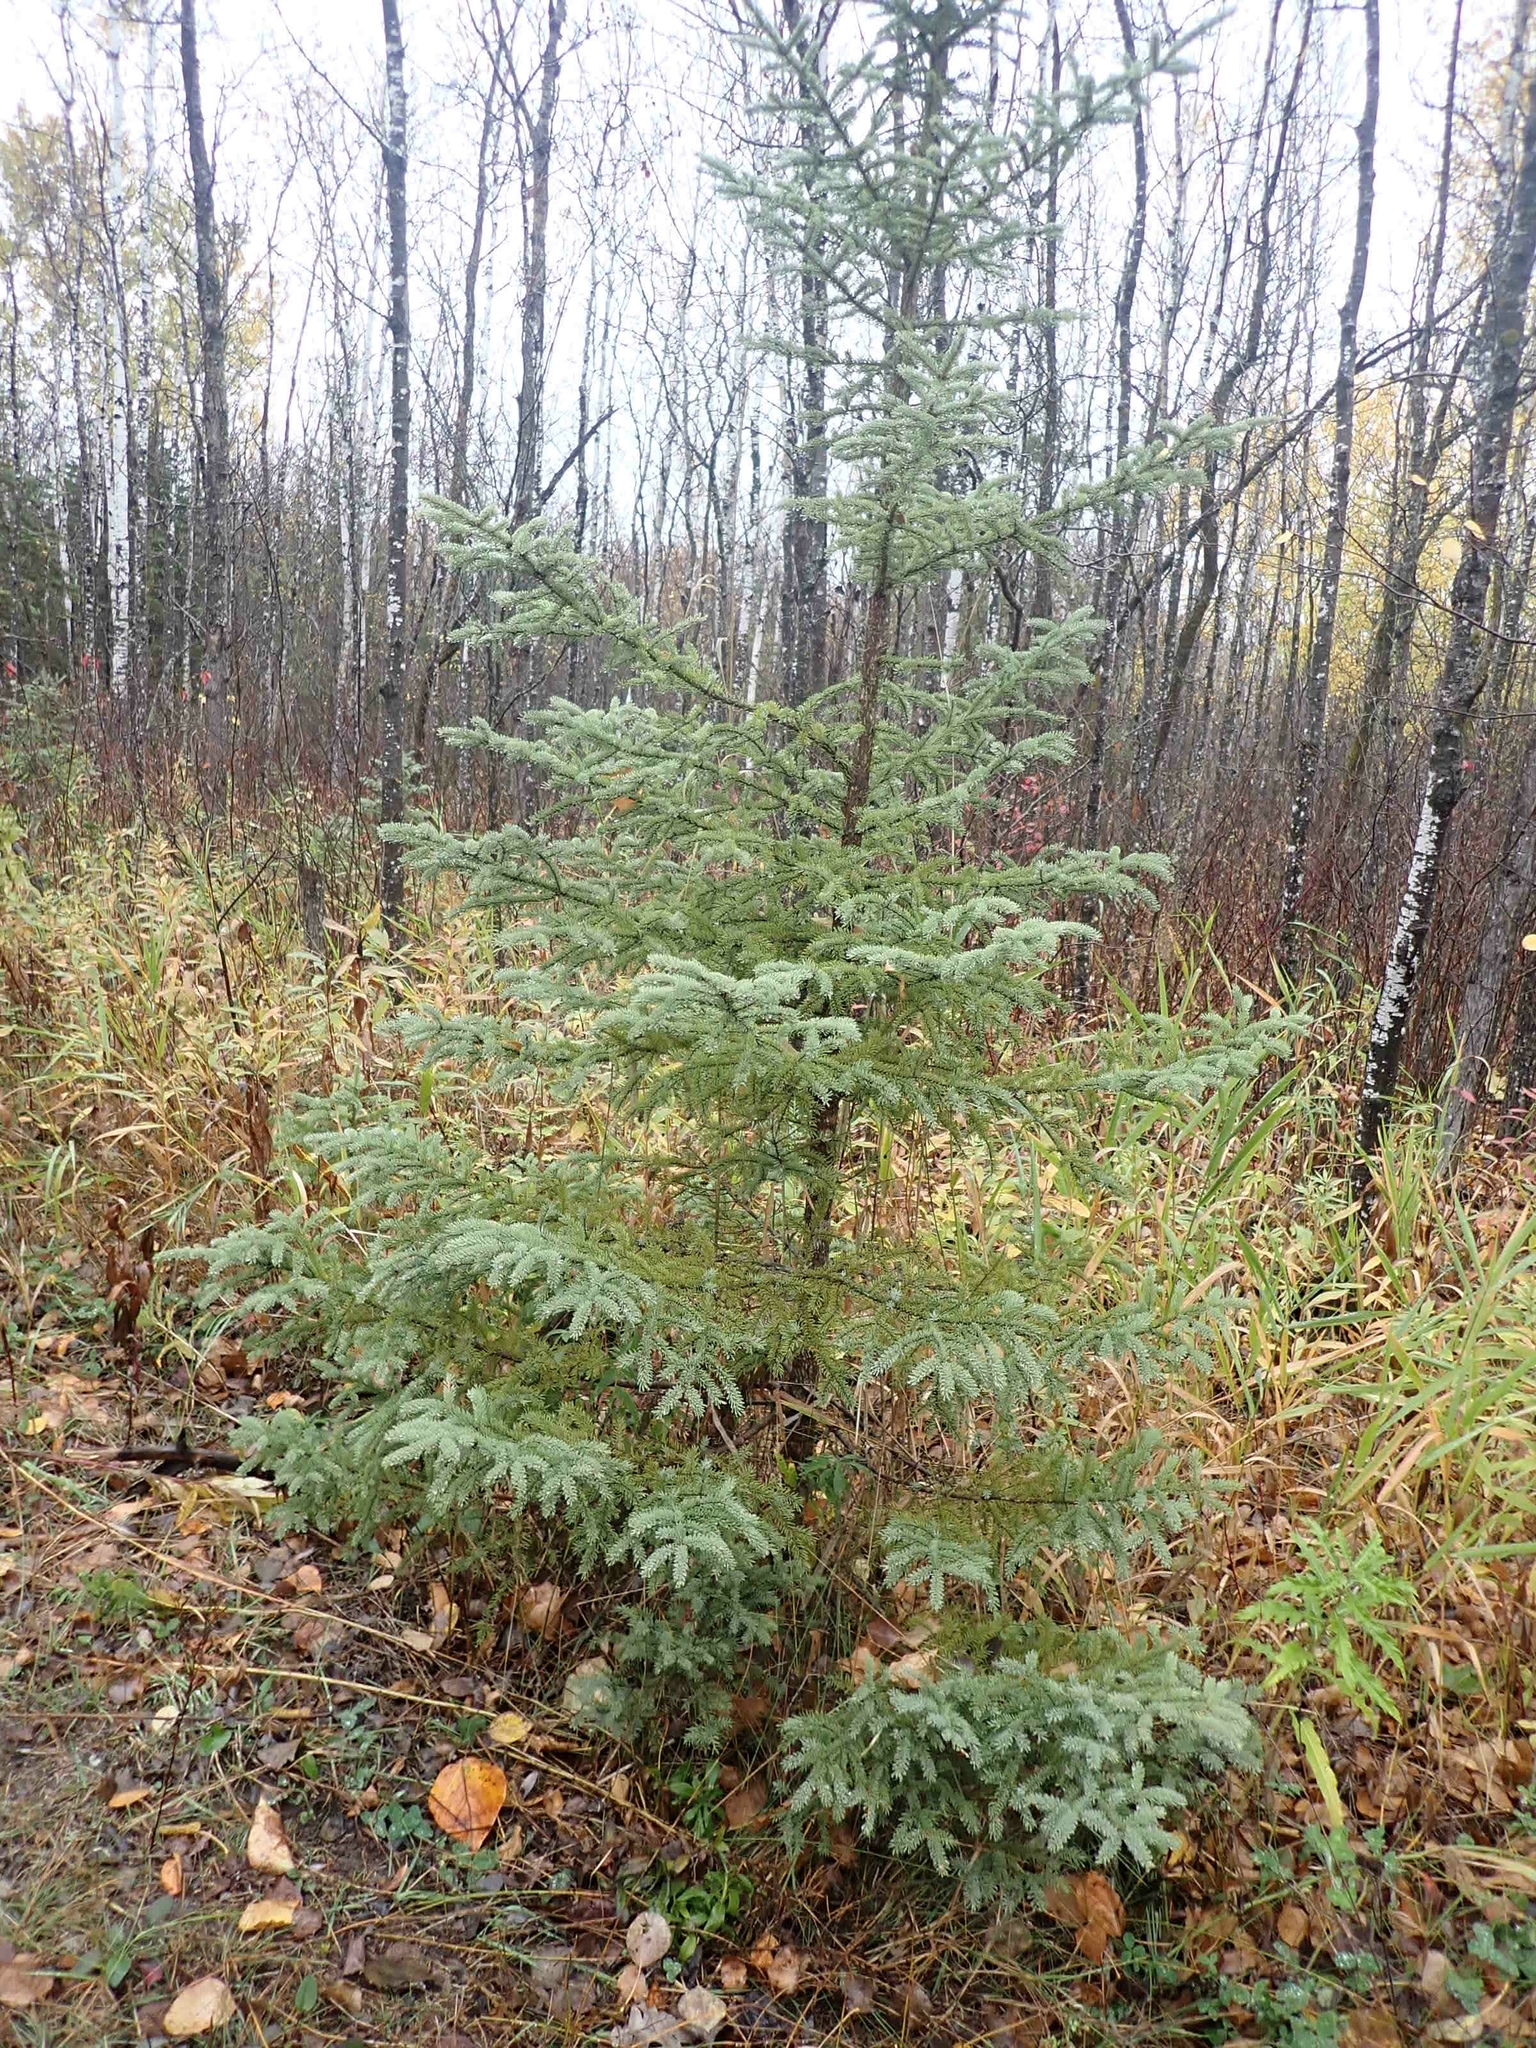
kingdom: Plantae
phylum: Tracheophyta
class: Pinopsida
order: Pinales
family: Pinaceae
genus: Picea
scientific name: Picea glauca
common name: White spruce
